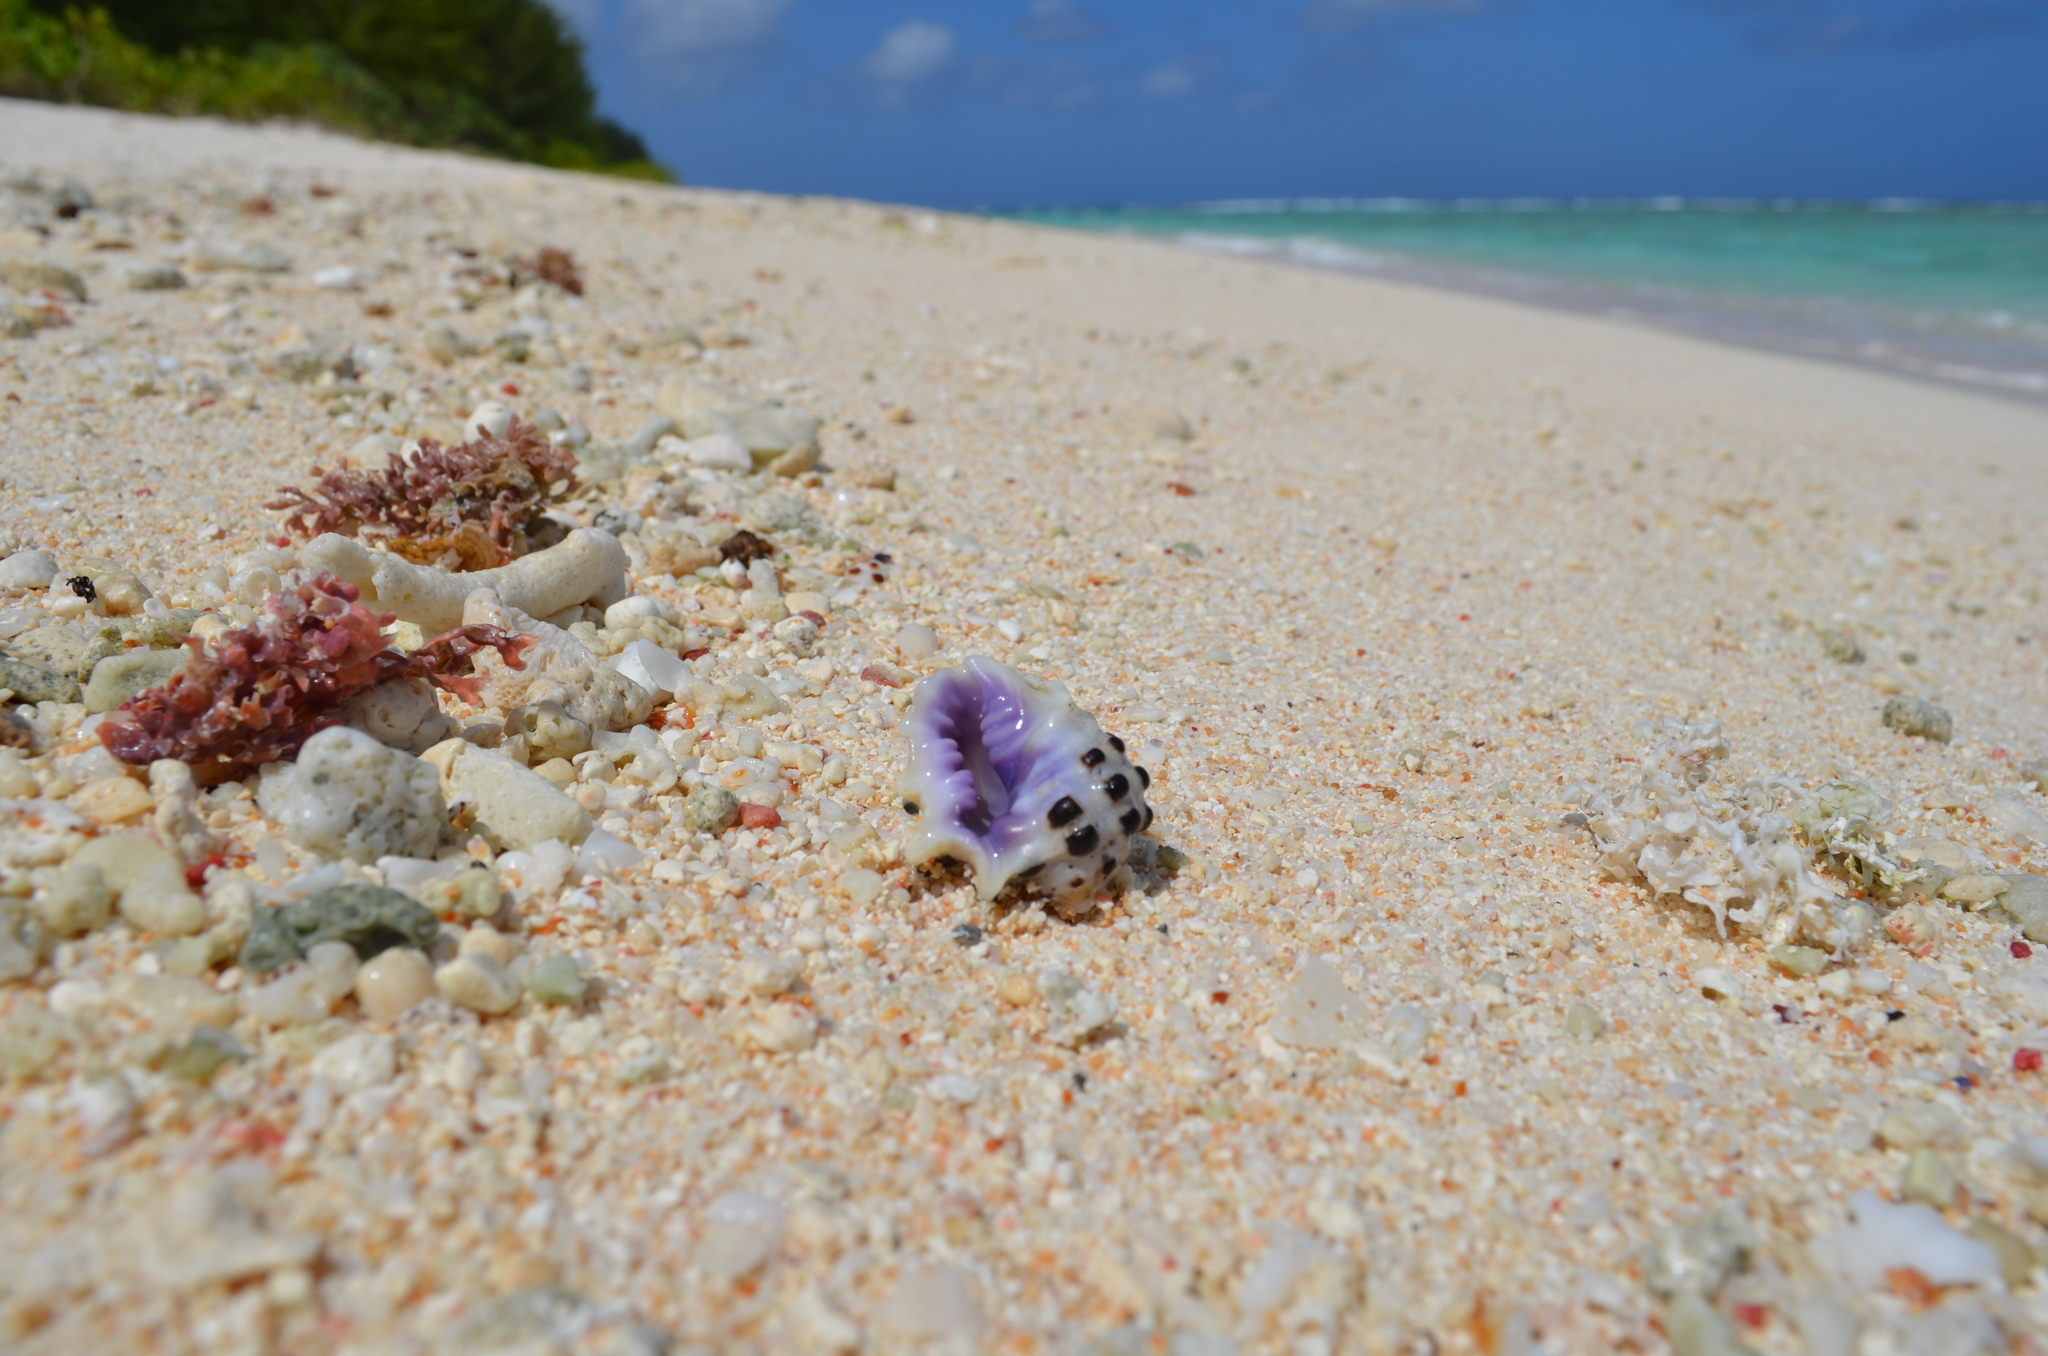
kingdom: Animalia
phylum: Mollusca
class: Gastropoda
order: Neogastropoda
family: Muricidae
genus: Drupa
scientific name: Drupa morum
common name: Purple drupe
